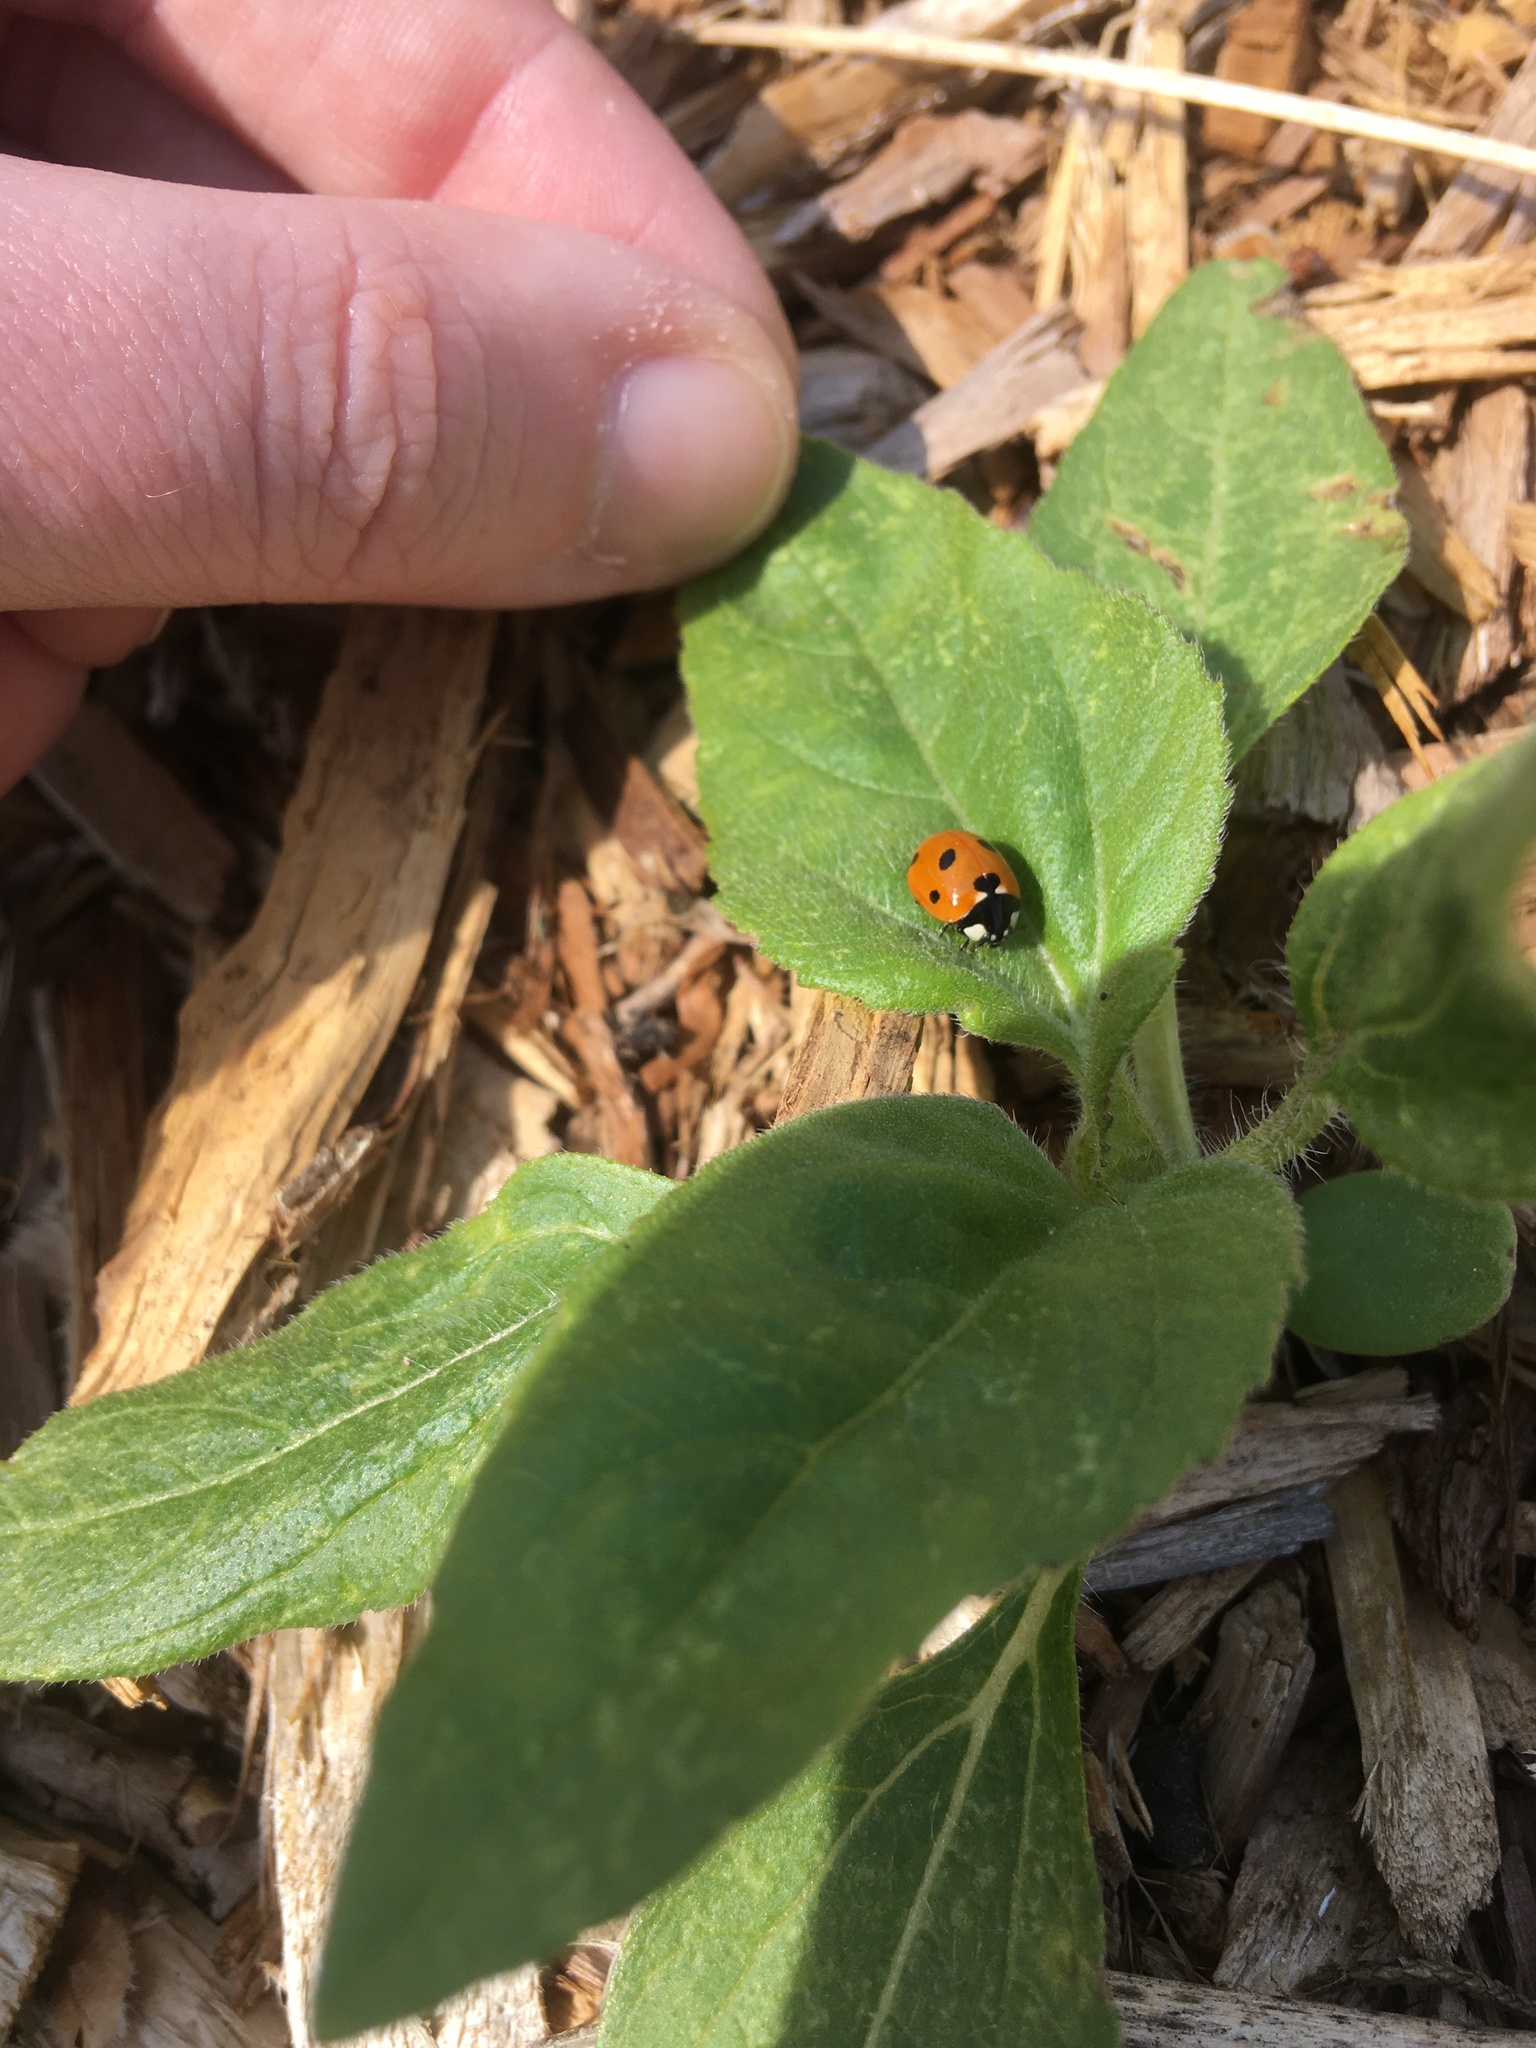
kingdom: Animalia
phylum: Arthropoda
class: Insecta
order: Coleoptera
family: Coccinellidae
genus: Coccinella
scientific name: Coccinella septempunctata
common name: Sevenspotted lady beetle
